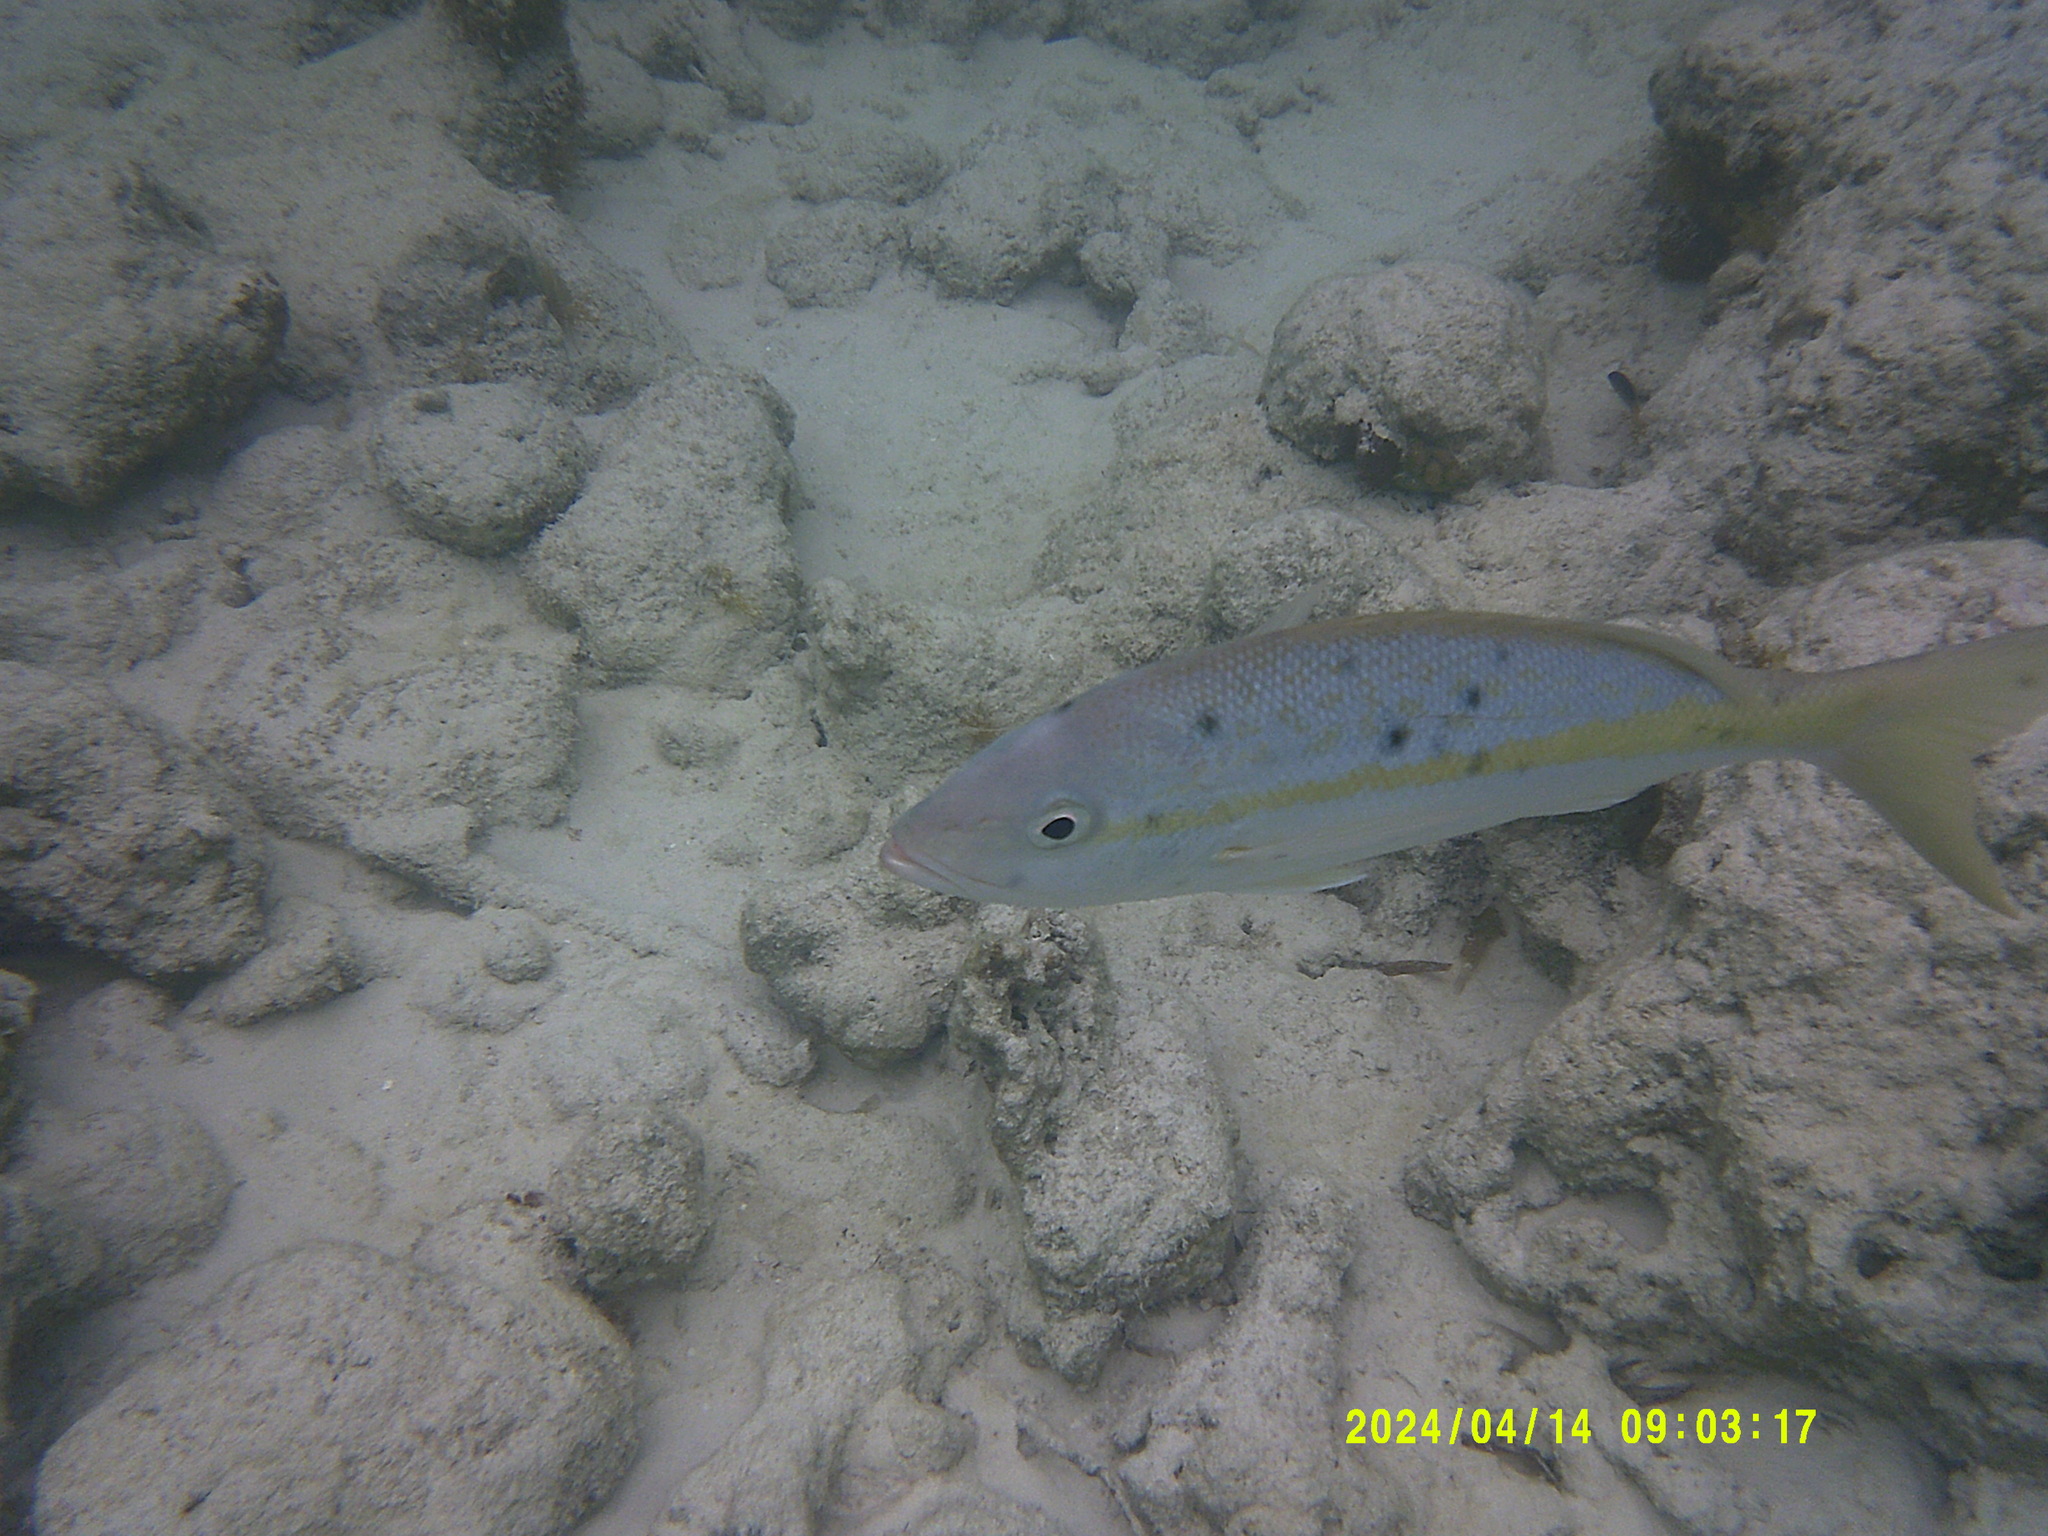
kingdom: Animalia
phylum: Chordata
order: Perciformes
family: Lutjanidae
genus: Ocyurus
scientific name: Ocyurus chrysurus
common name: Yellowtail snapper
